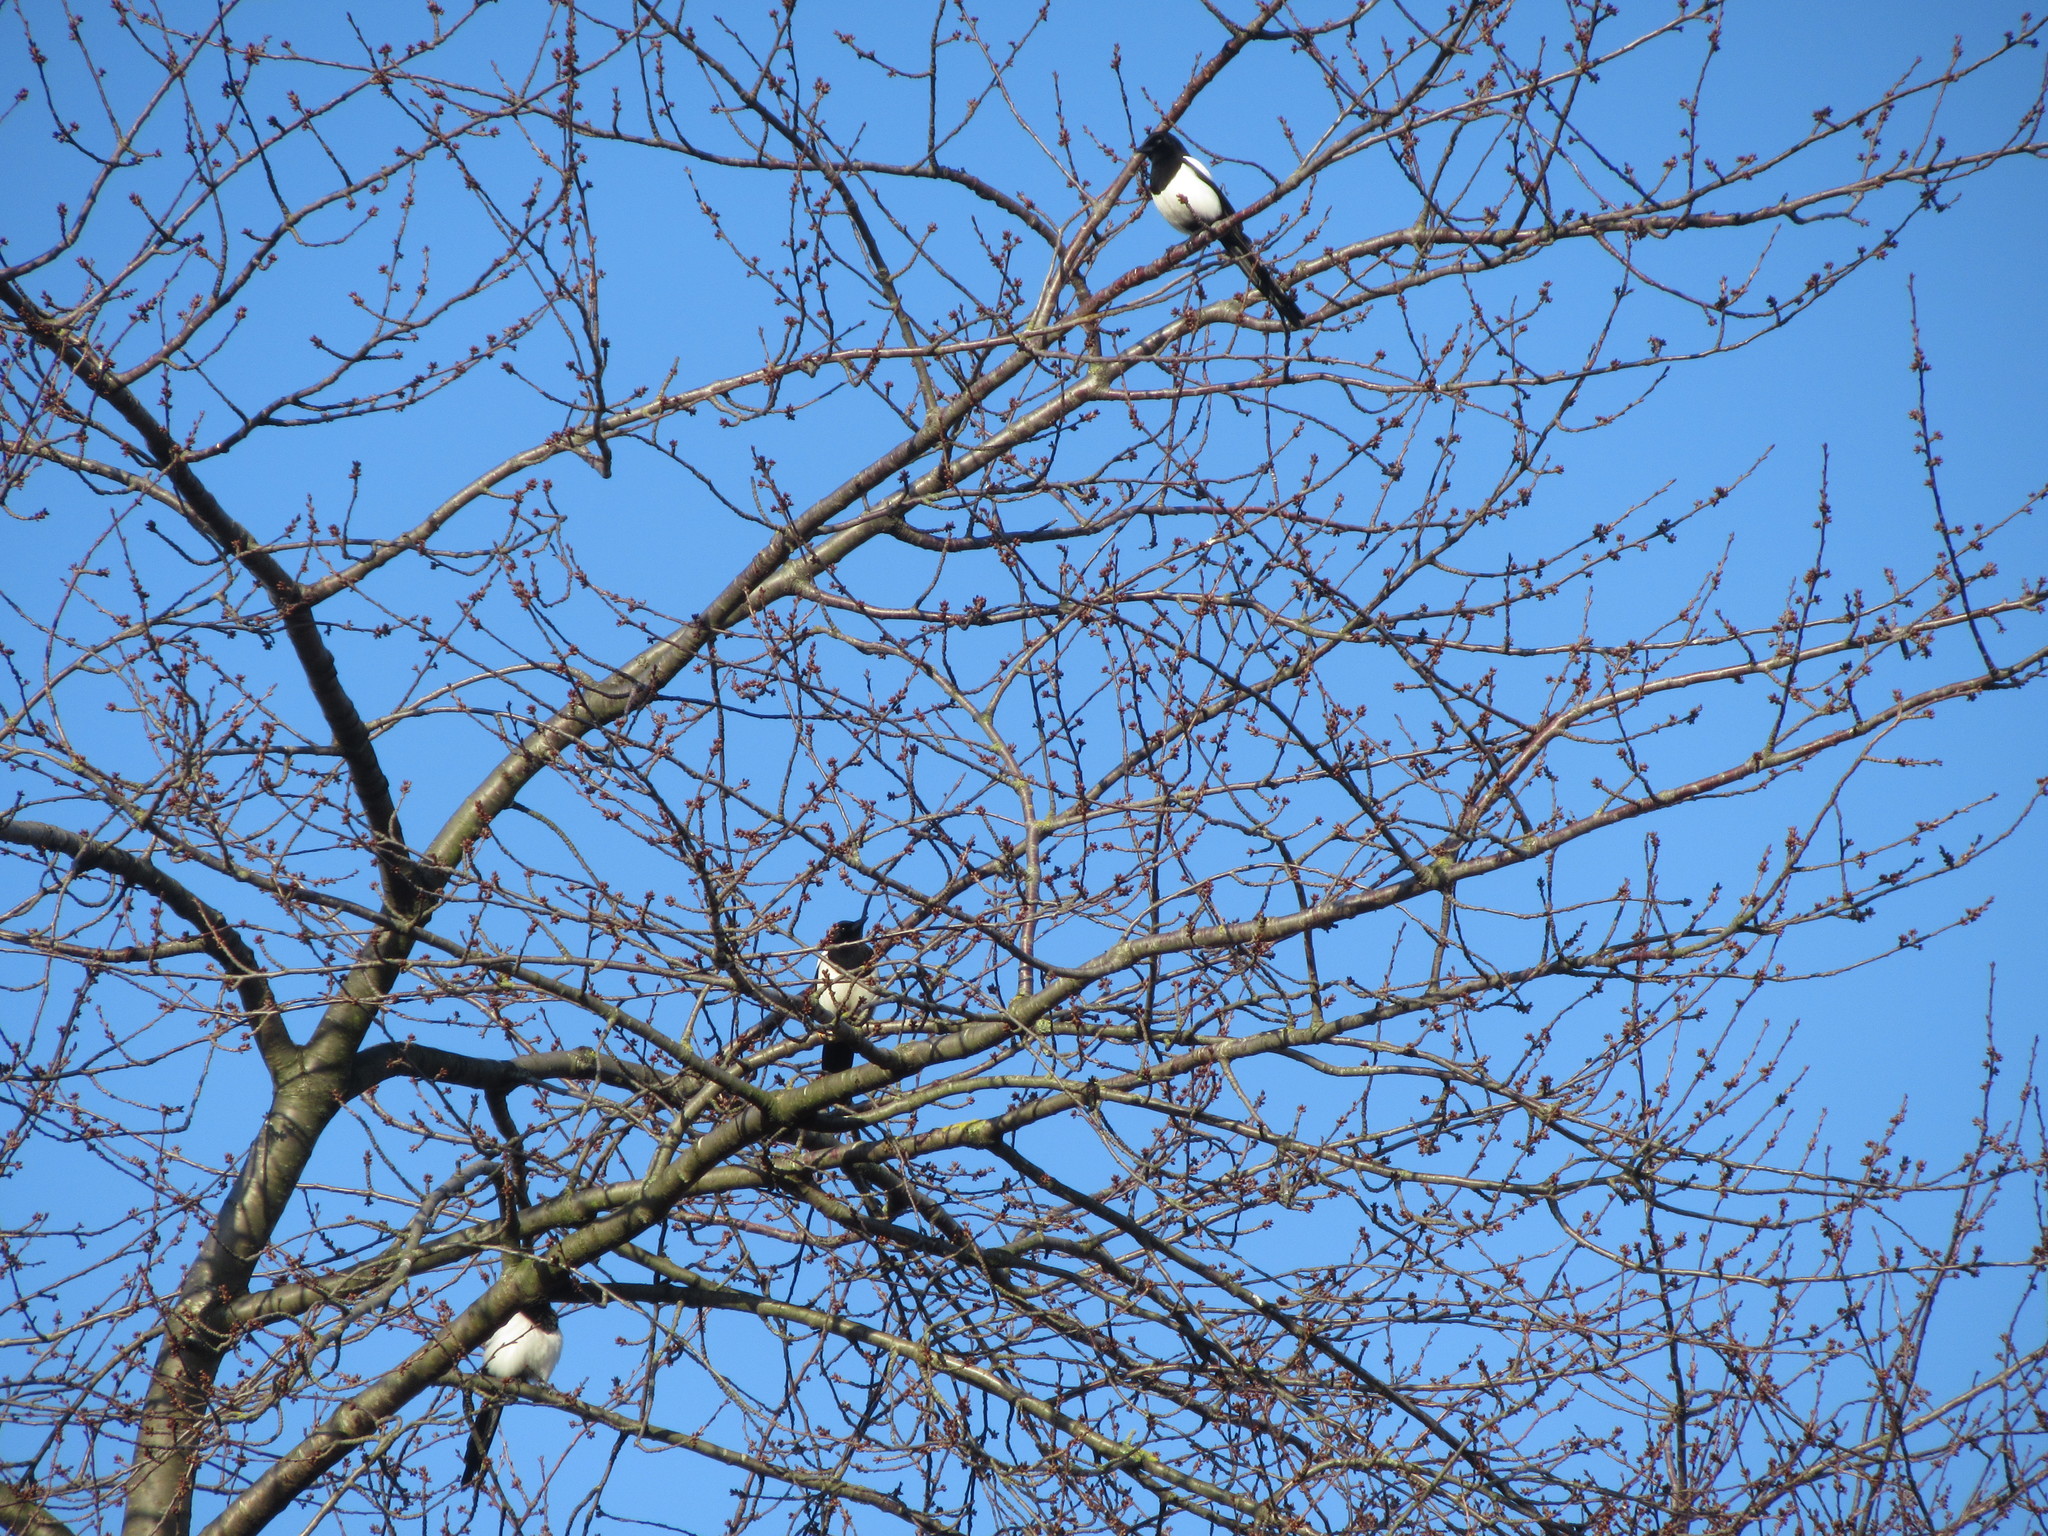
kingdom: Animalia
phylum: Chordata
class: Aves
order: Passeriformes
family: Corvidae
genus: Pica
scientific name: Pica pica
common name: Eurasian magpie
